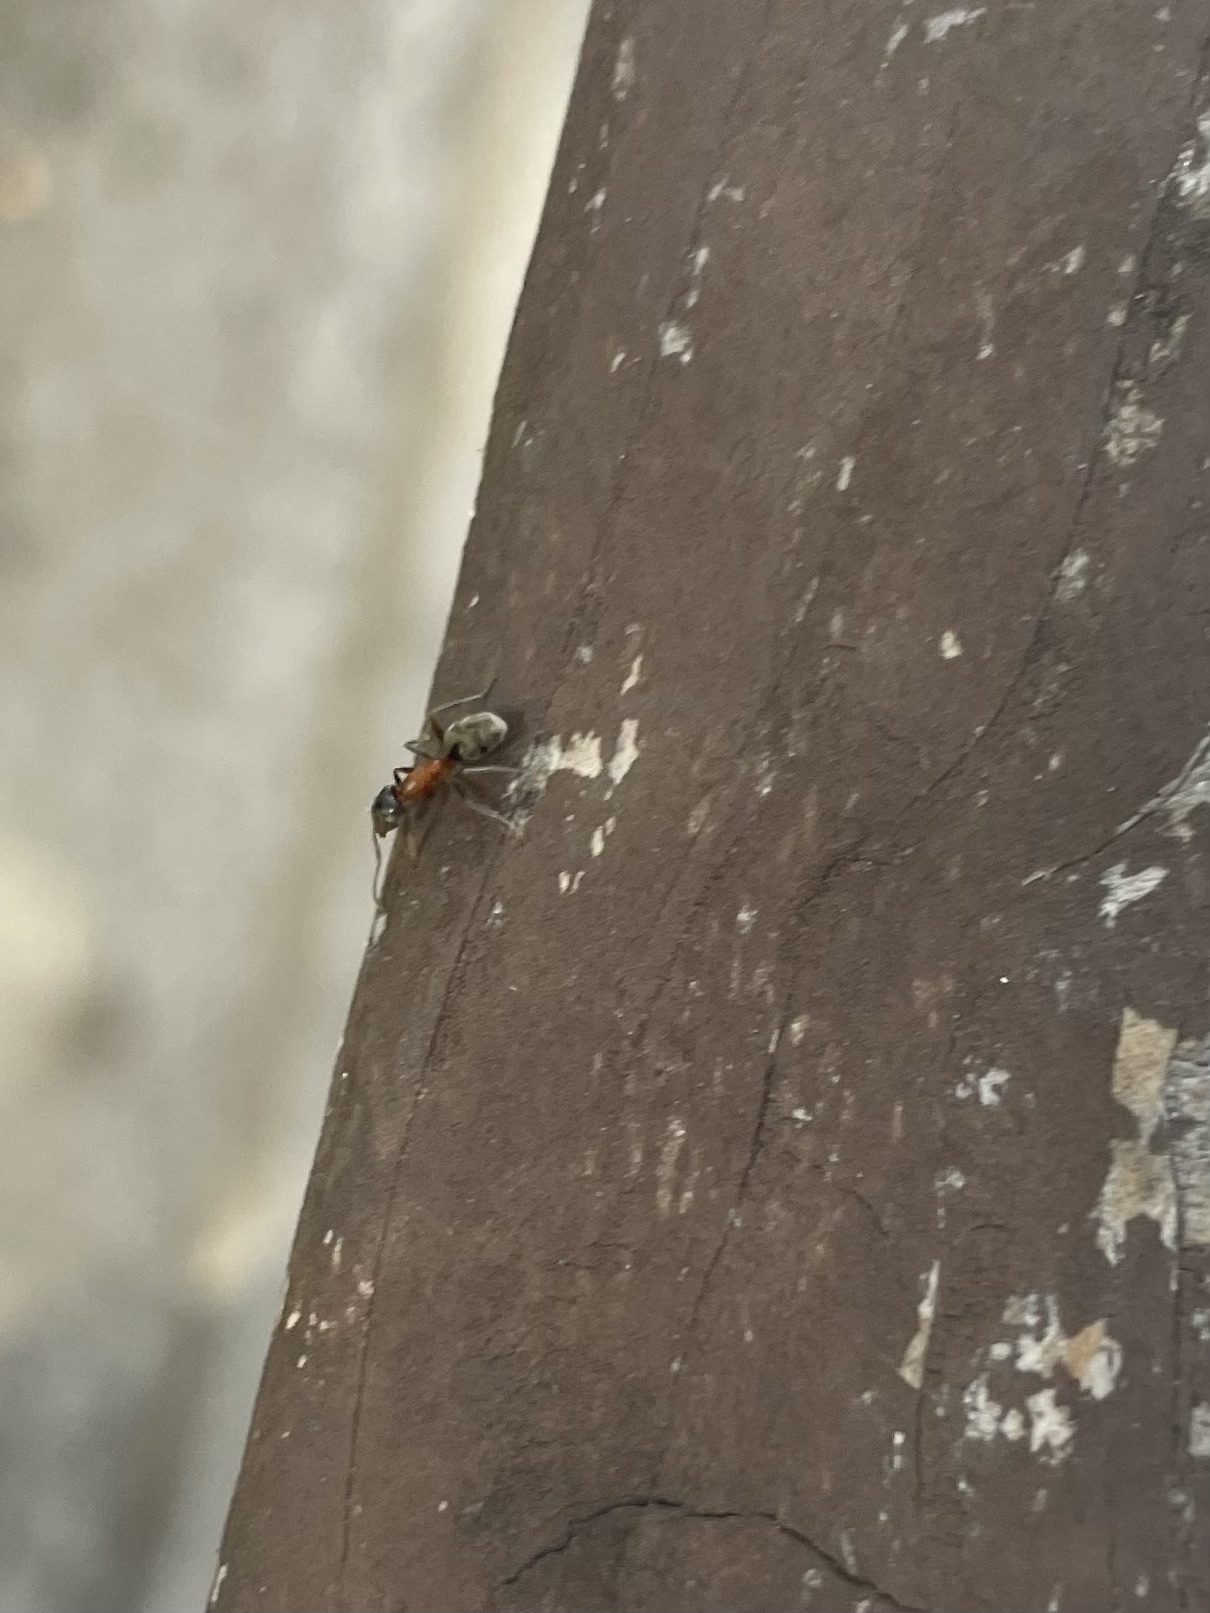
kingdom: Animalia
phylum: Arthropoda
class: Insecta
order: Hymenoptera
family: Formicidae
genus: Liometopum
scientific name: Liometopum occidentale
